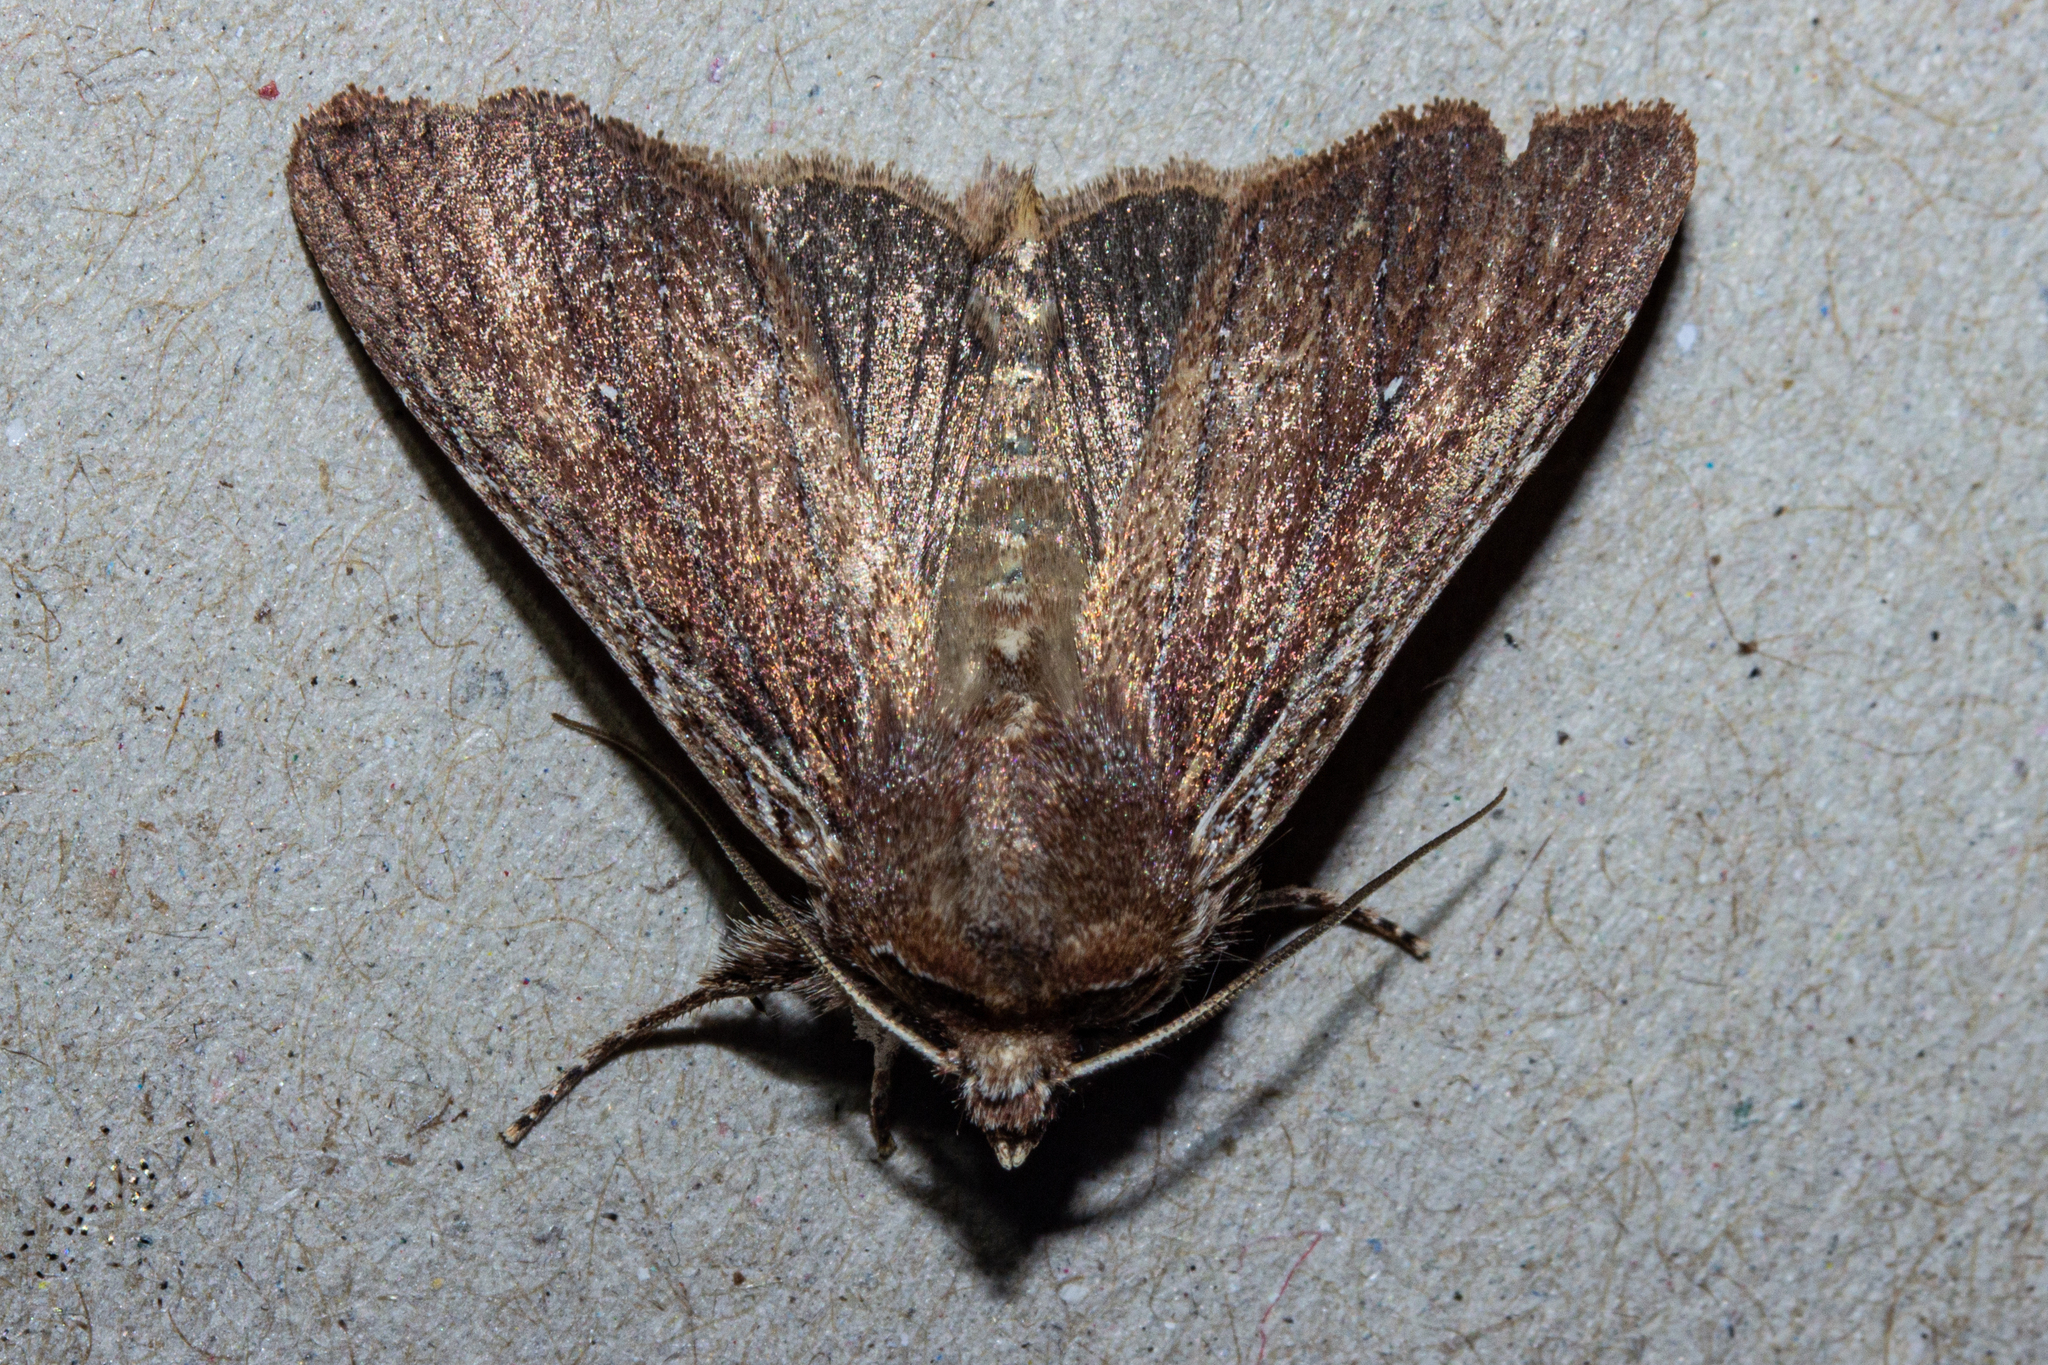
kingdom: Animalia
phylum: Arthropoda
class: Insecta
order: Lepidoptera
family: Noctuidae
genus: Ichneutica
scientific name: Ichneutica
